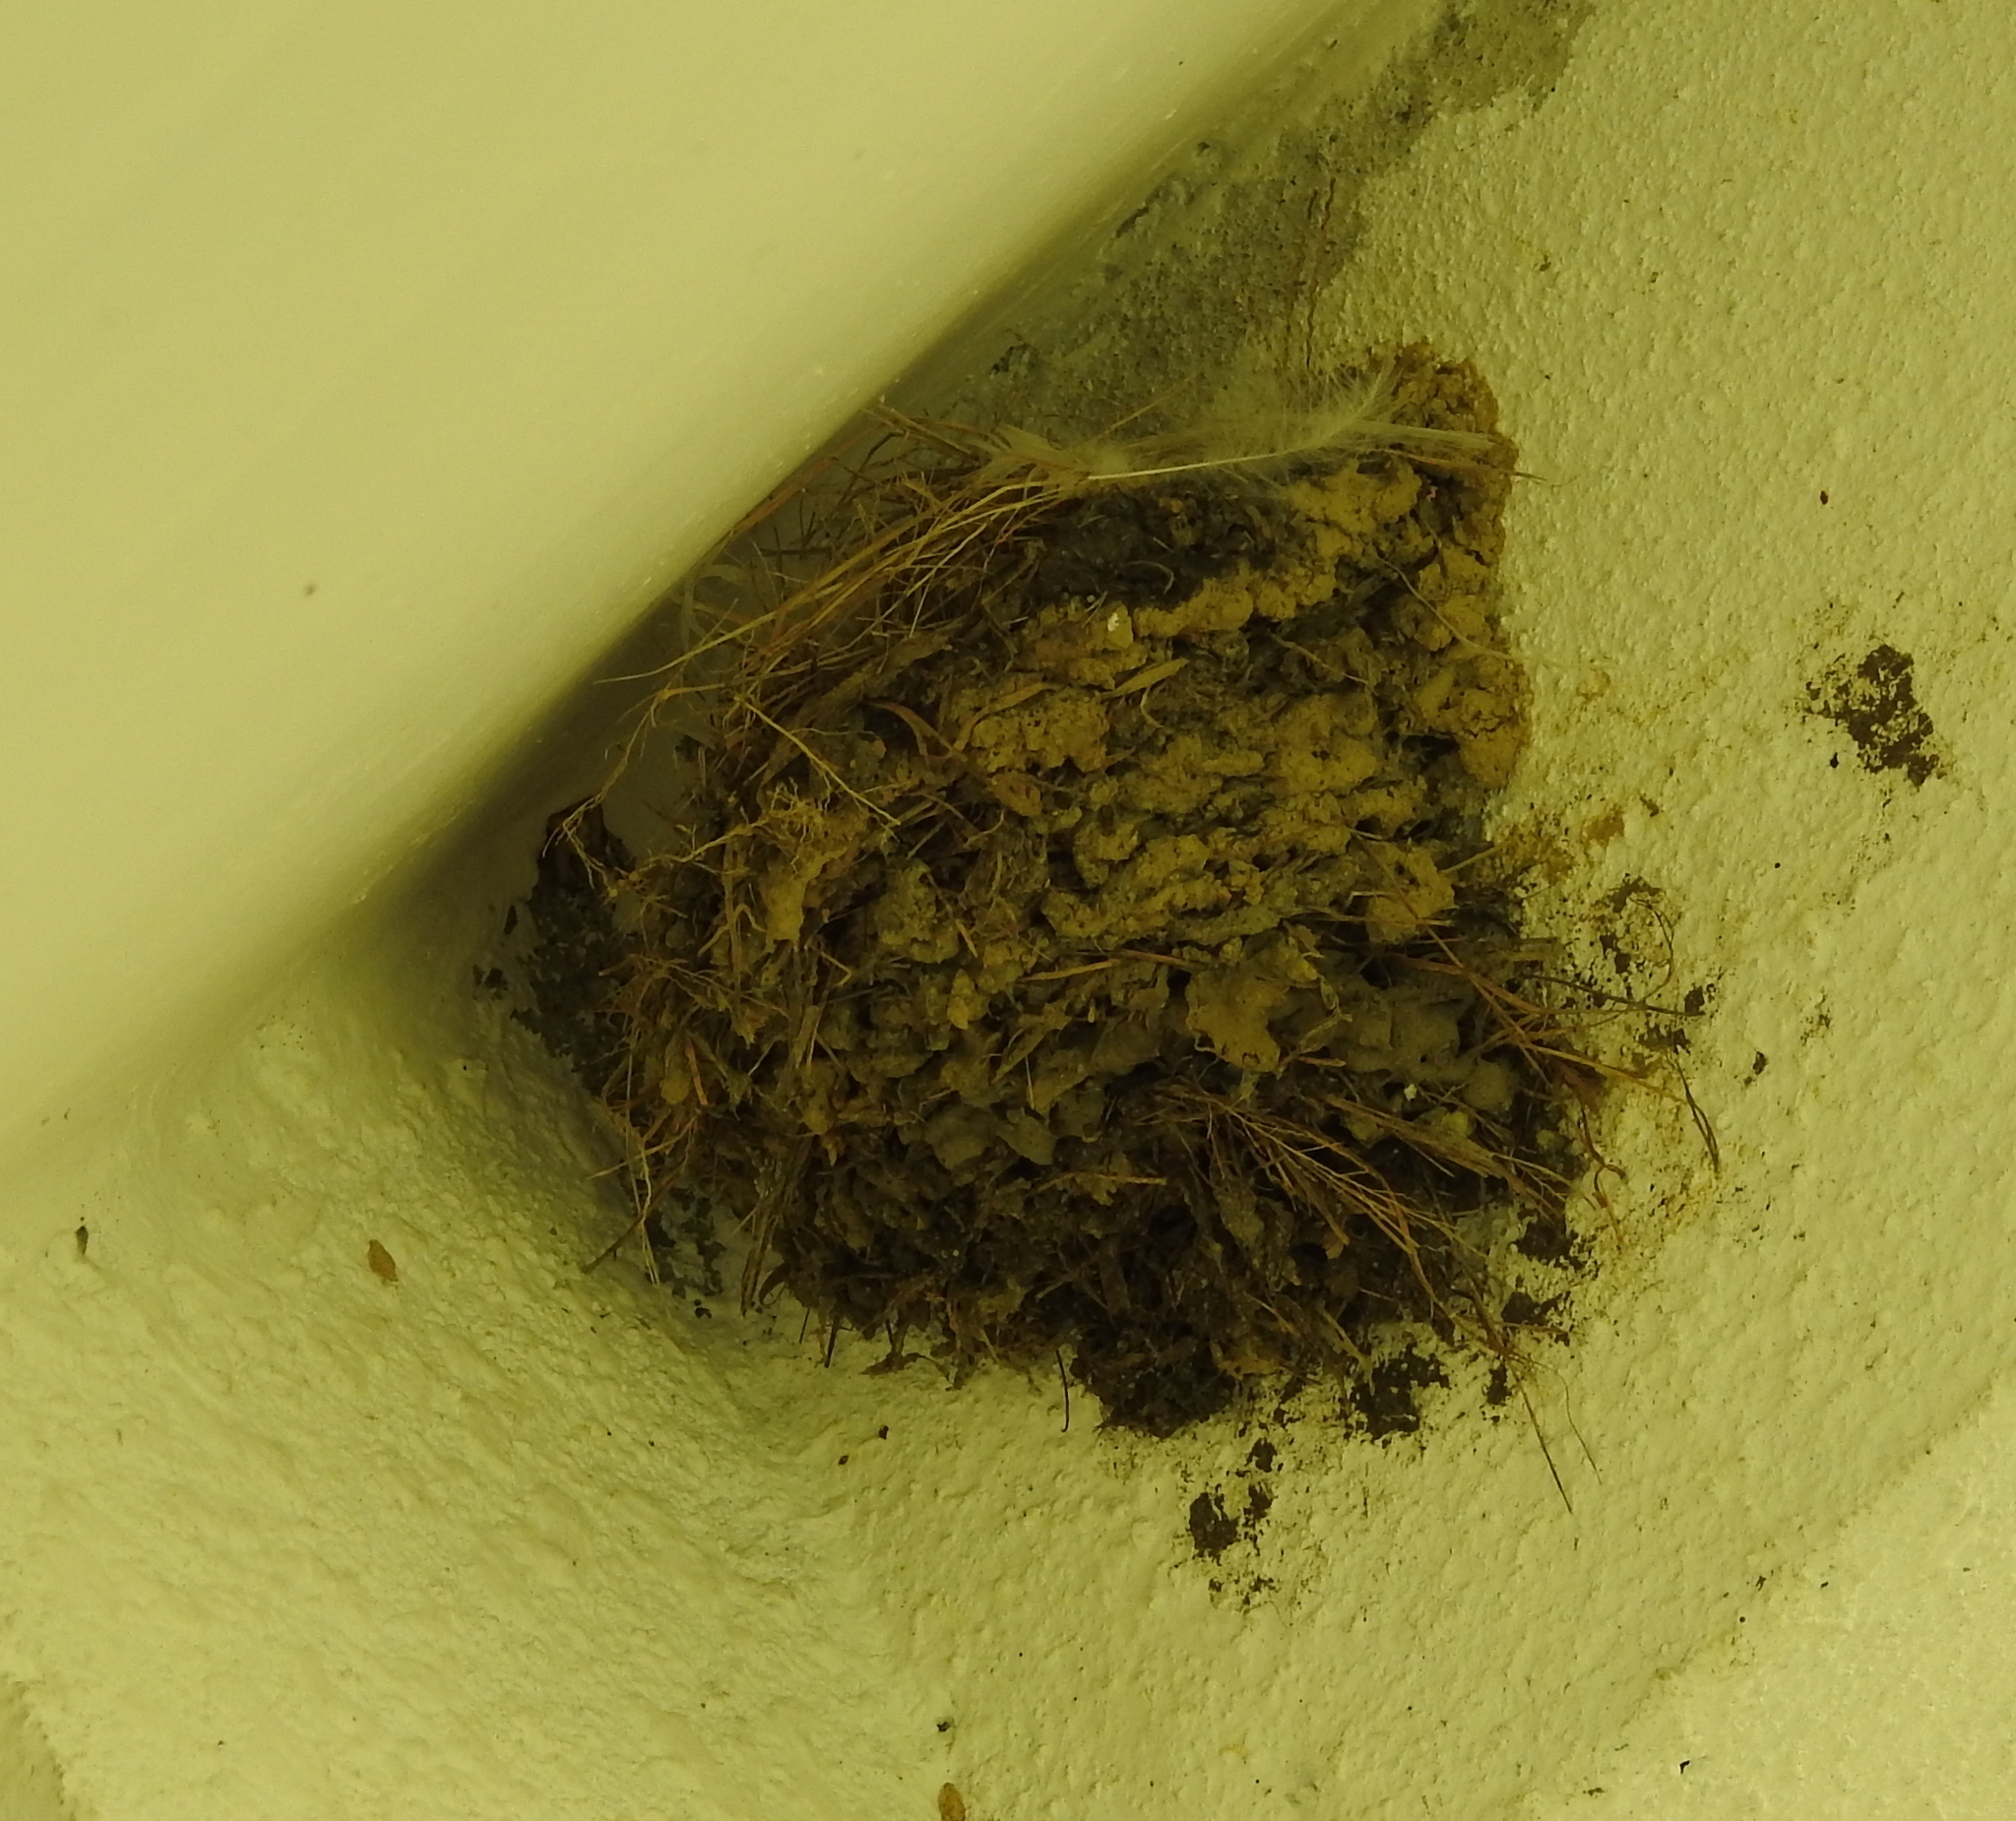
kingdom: Animalia
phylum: Chordata
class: Aves
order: Passeriformes
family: Hirundinidae
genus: Hirundo
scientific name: Hirundo tahitica
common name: Pacific swallow
